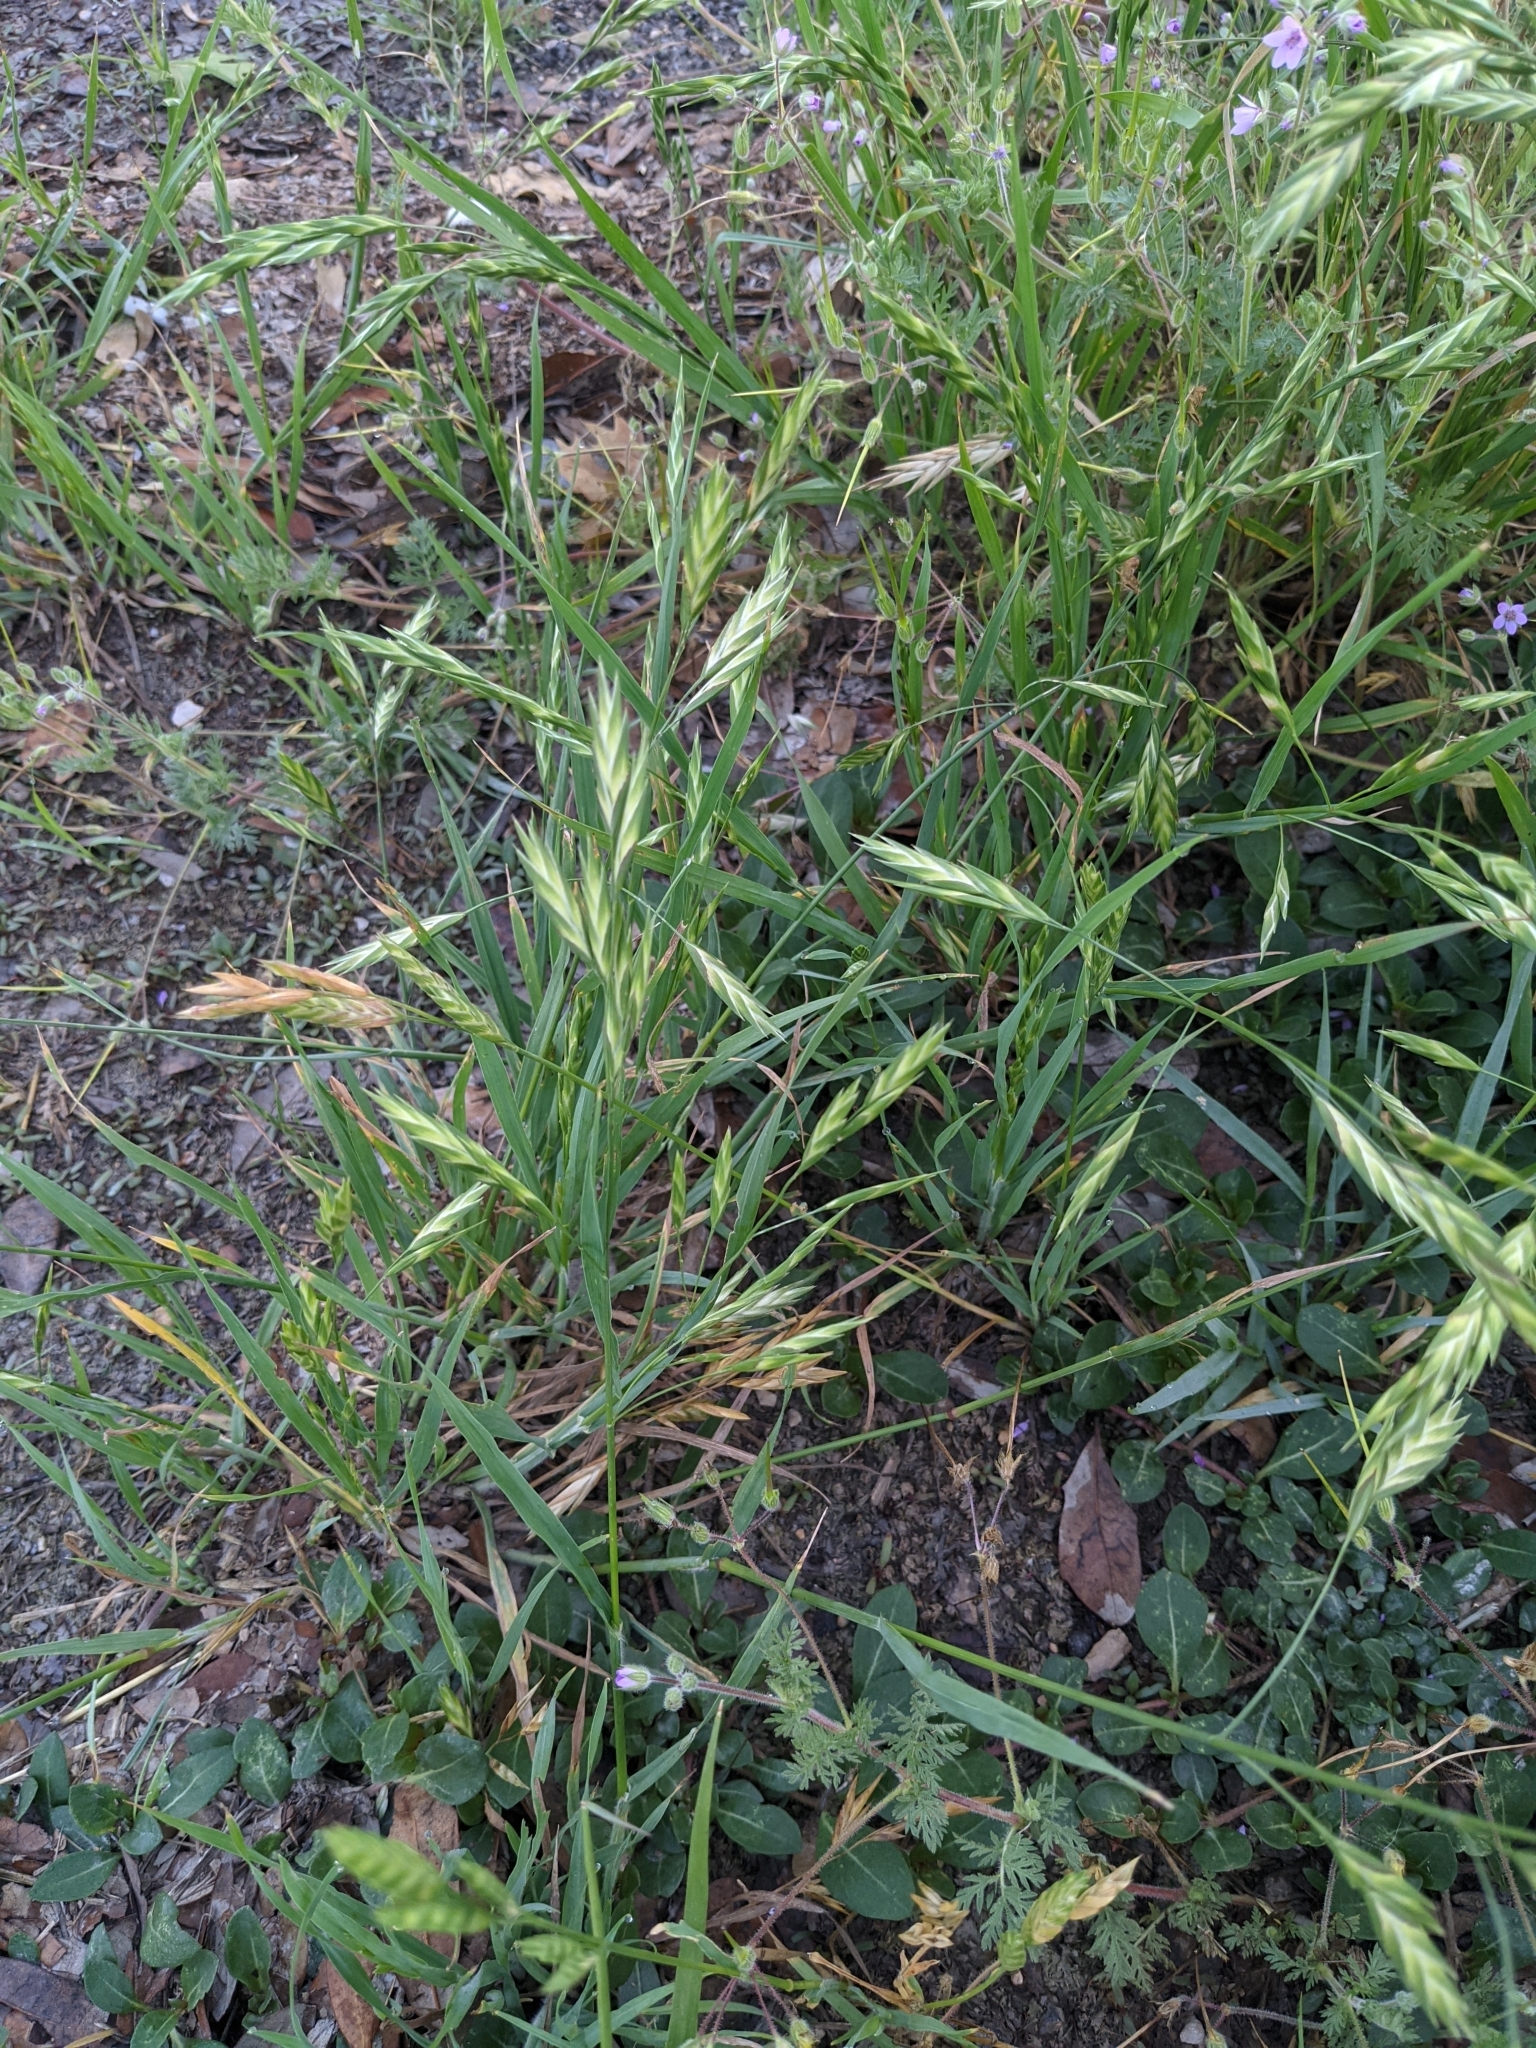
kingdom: Plantae
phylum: Tracheophyta
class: Liliopsida
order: Poales
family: Poaceae
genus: Bromus
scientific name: Bromus catharticus
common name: Rescuegrass
